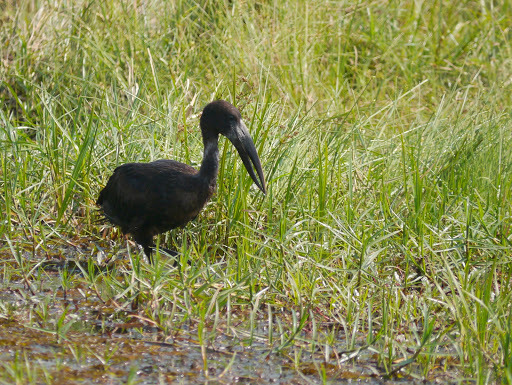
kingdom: Animalia
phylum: Chordata
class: Aves
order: Ciconiiformes
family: Ciconiidae
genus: Anastomus
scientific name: Anastomus lamelligerus
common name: African openbill
